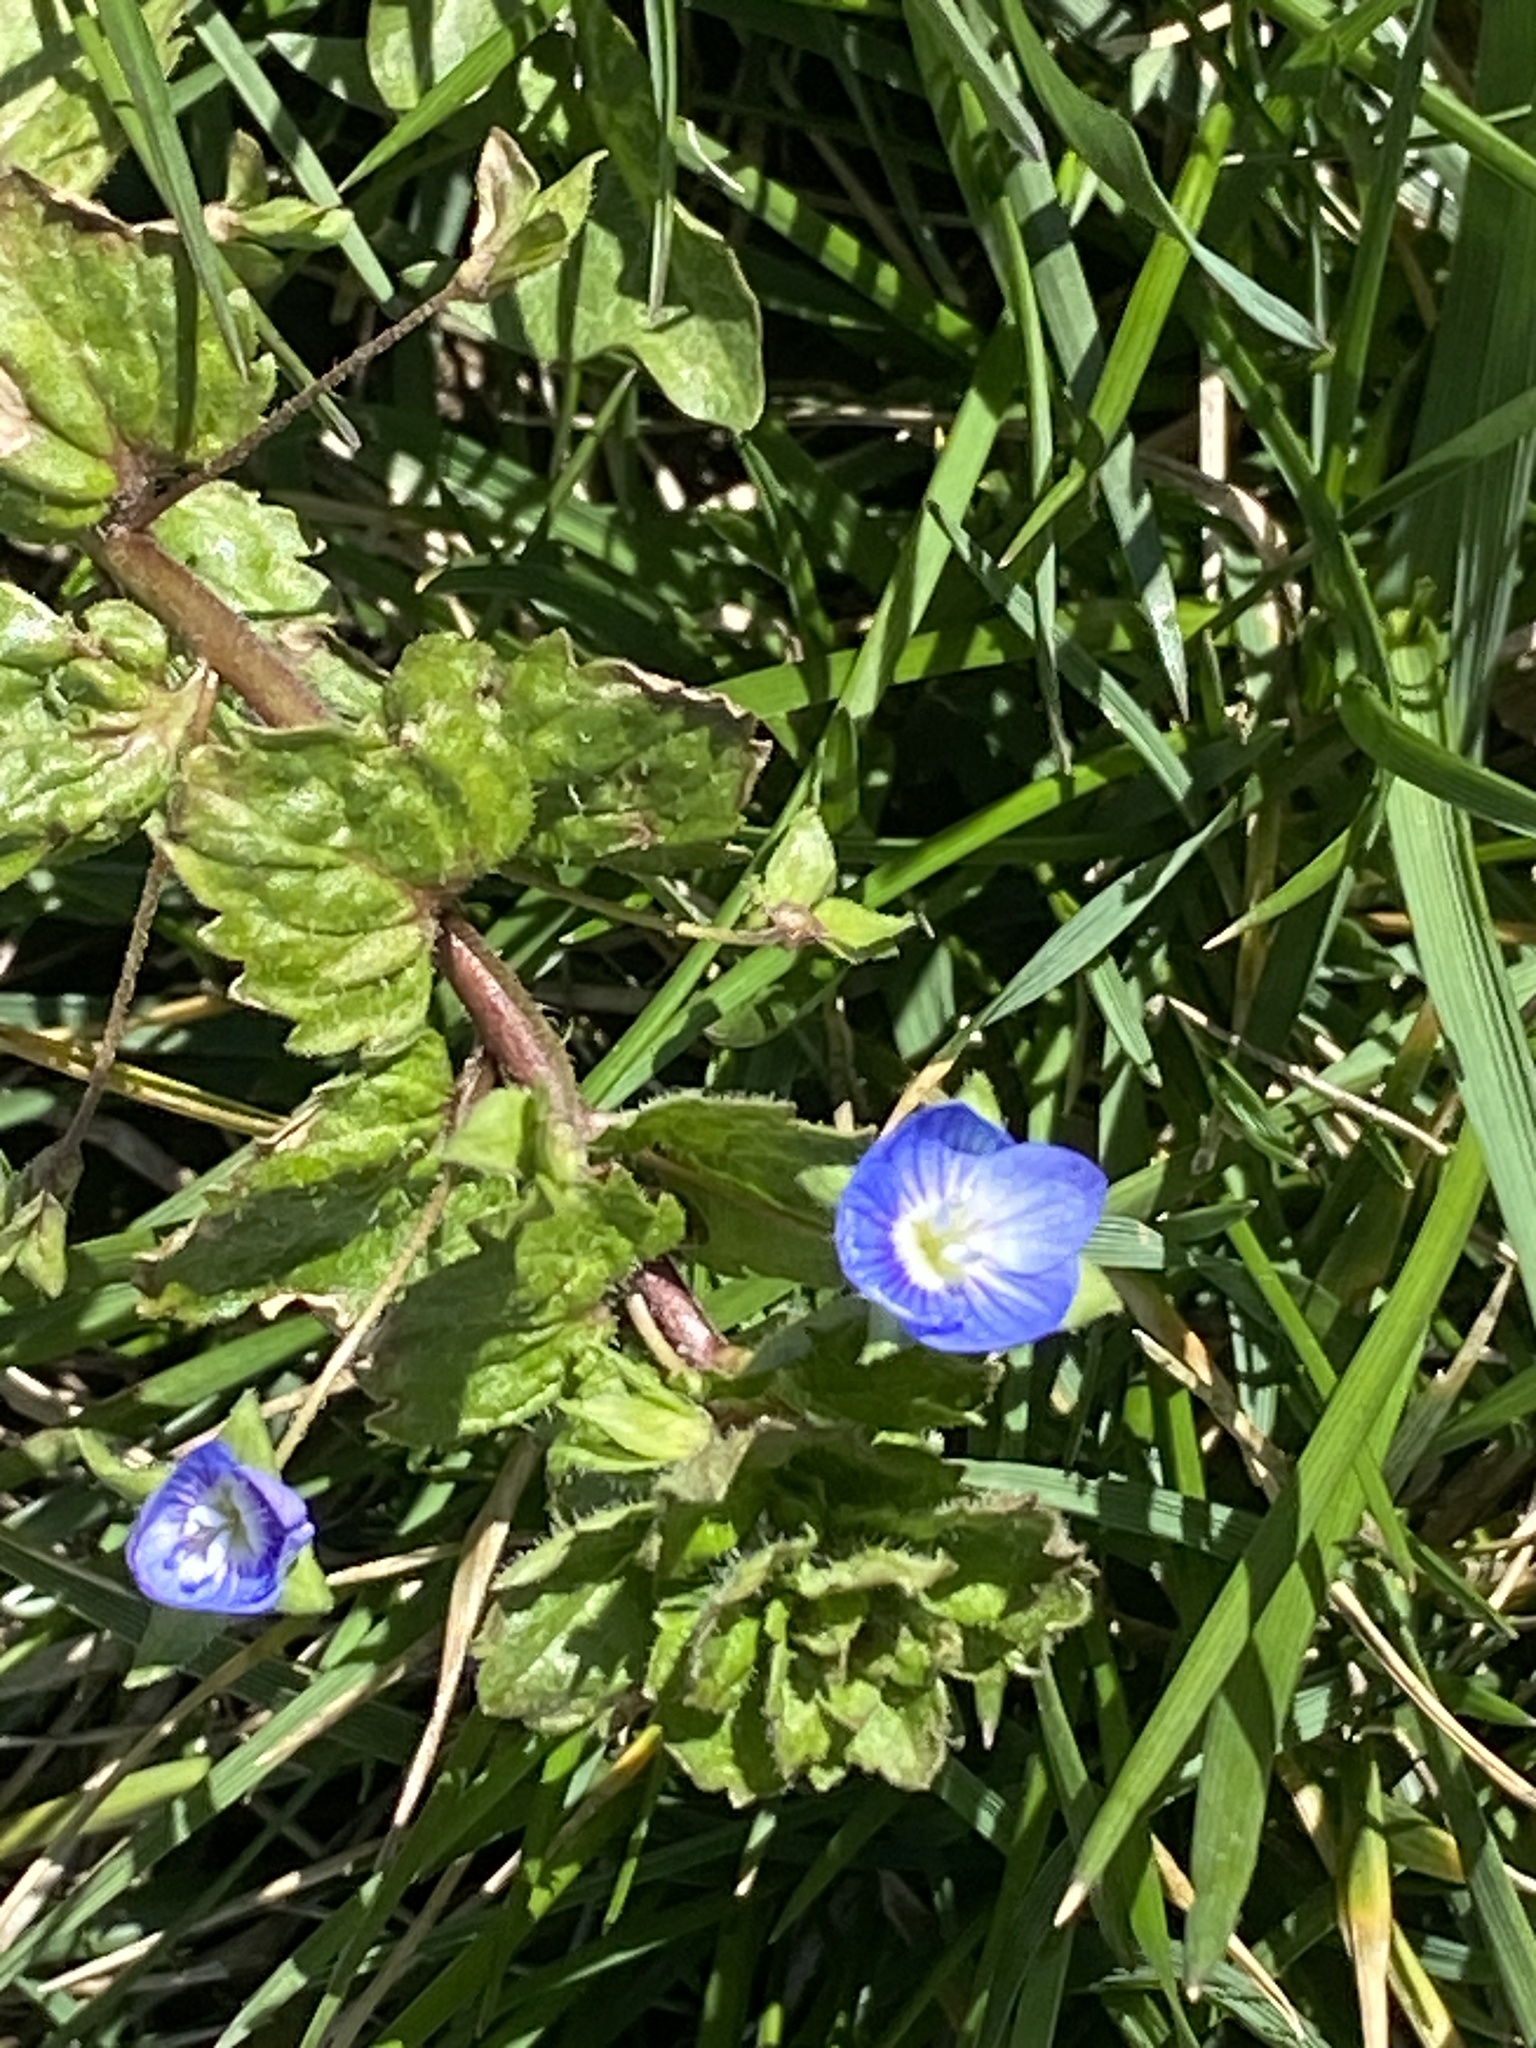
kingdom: Plantae
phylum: Tracheophyta
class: Magnoliopsida
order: Lamiales
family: Plantaginaceae
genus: Veronica
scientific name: Veronica persica
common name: Common field-speedwell
